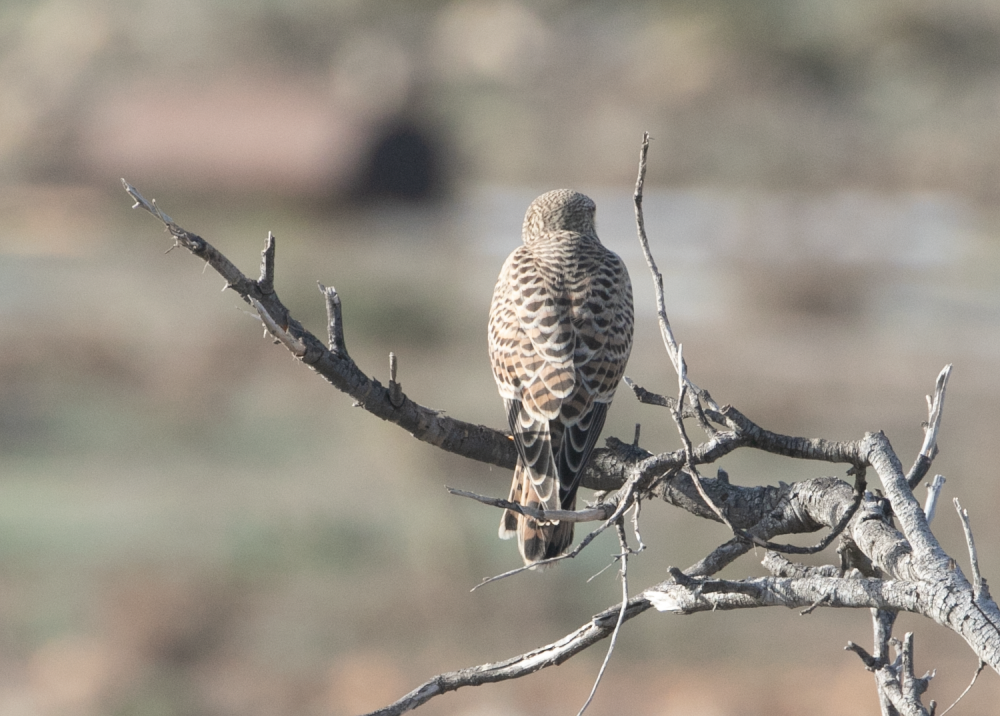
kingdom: Animalia
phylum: Chordata
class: Aves
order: Falconiformes
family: Falconidae
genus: Falco
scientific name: Falco tinnunculus
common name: Common kestrel
